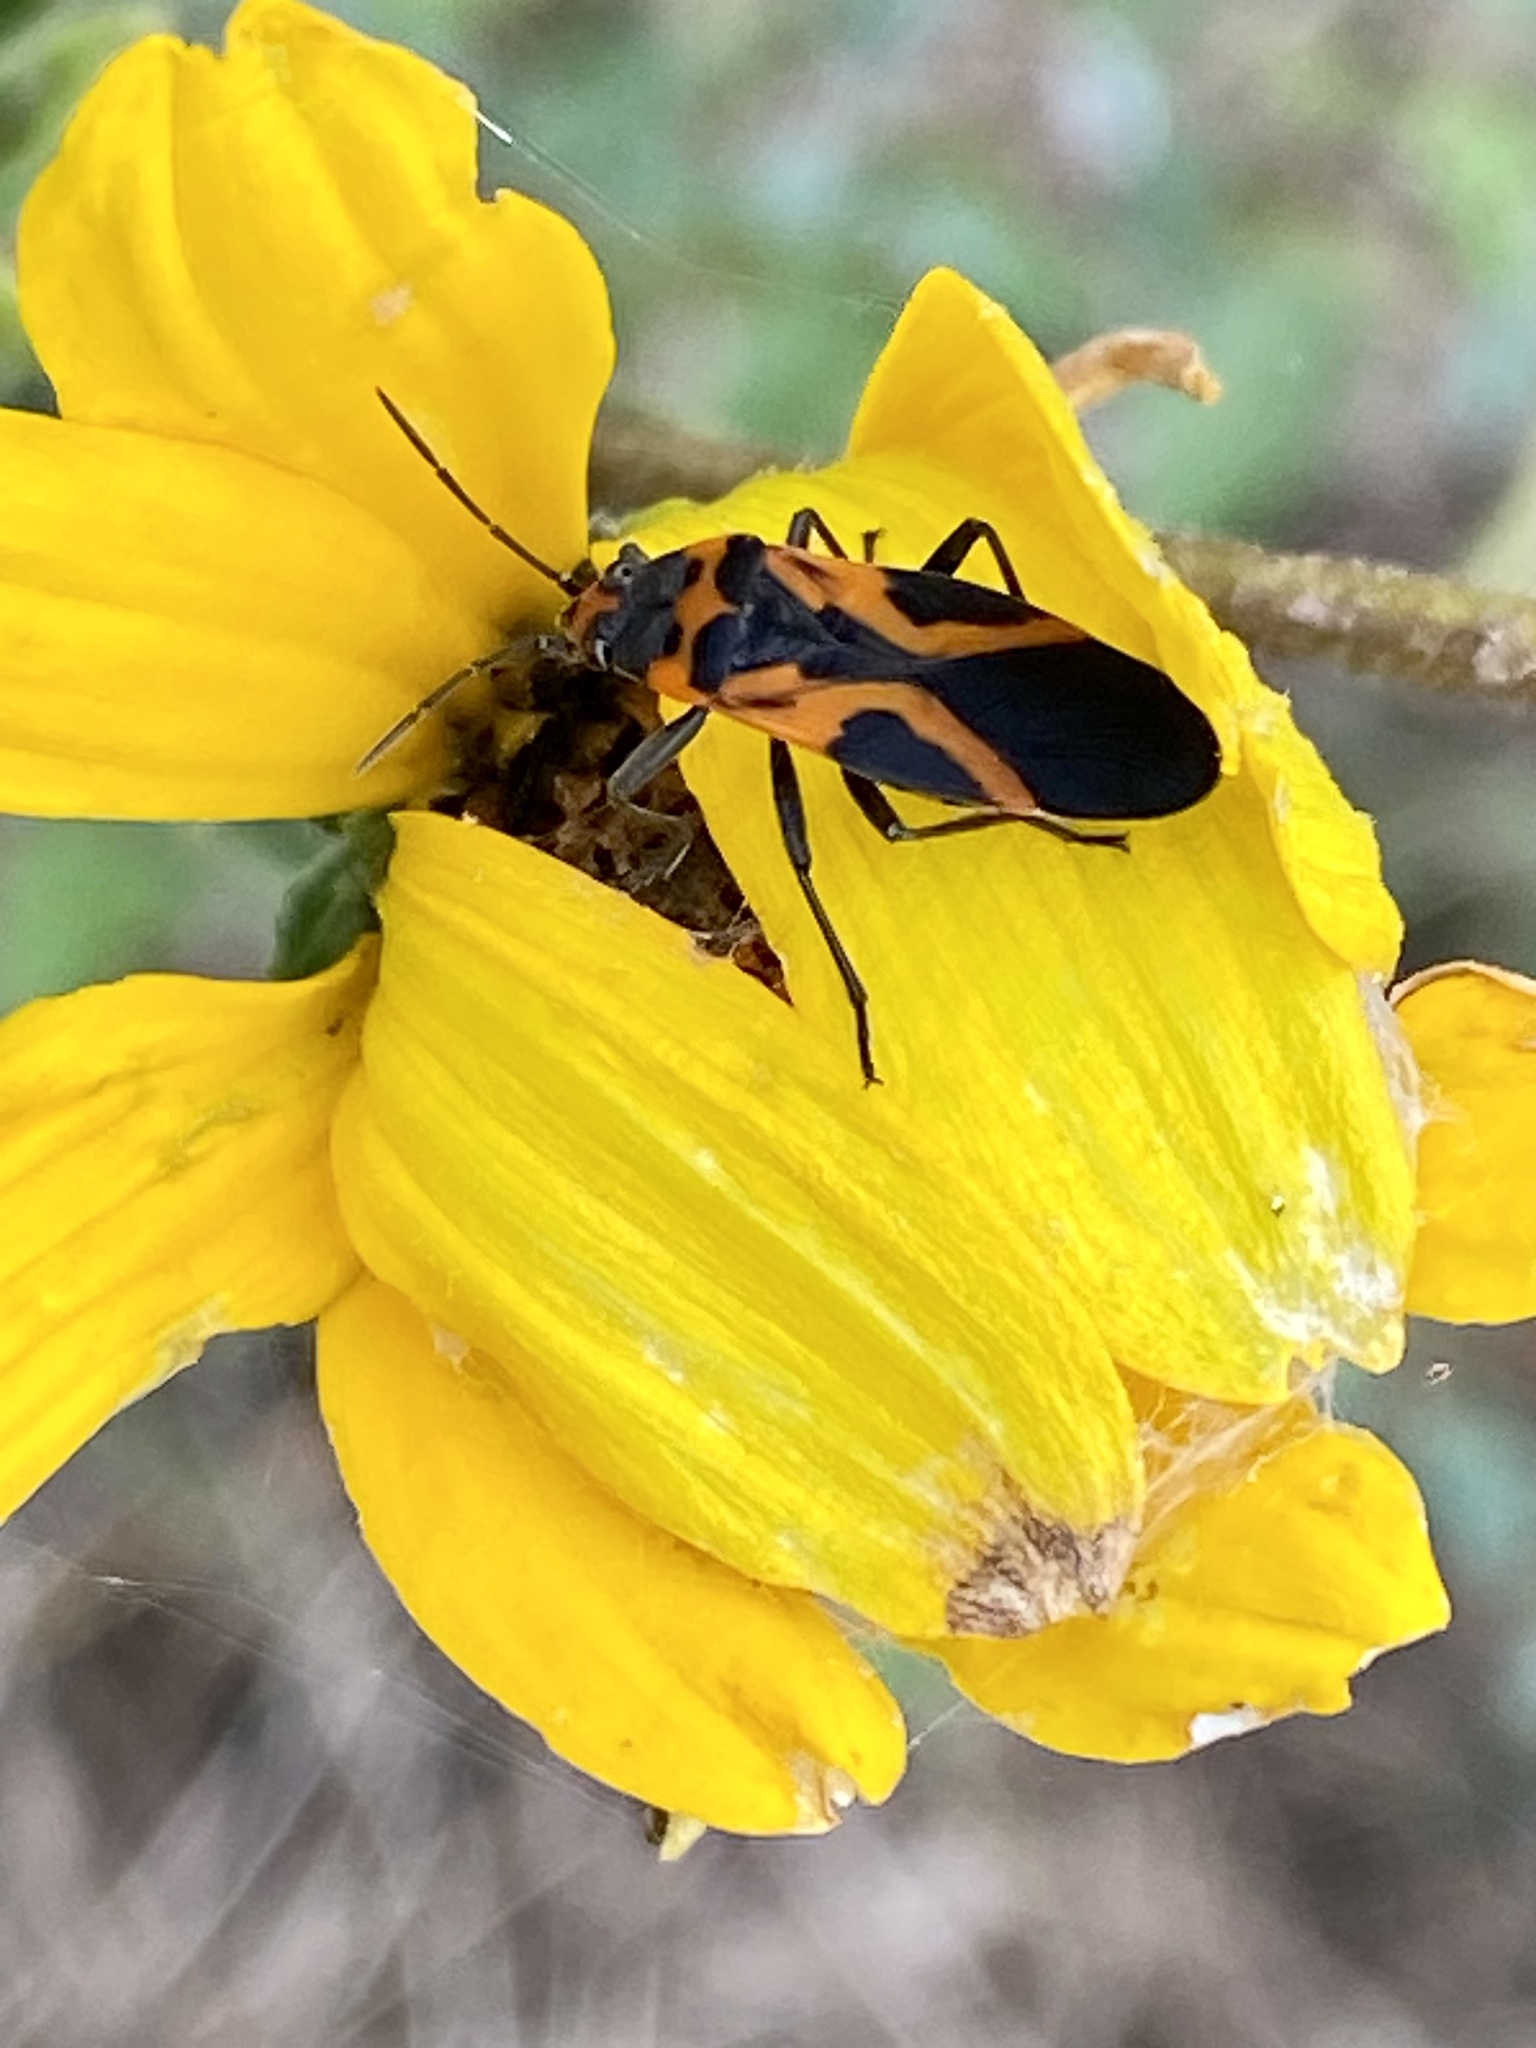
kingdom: Animalia
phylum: Arthropoda
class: Insecta
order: Hemiptera
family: Lygaeidae
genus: Lygaeus
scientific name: Lygaeus turcicus
